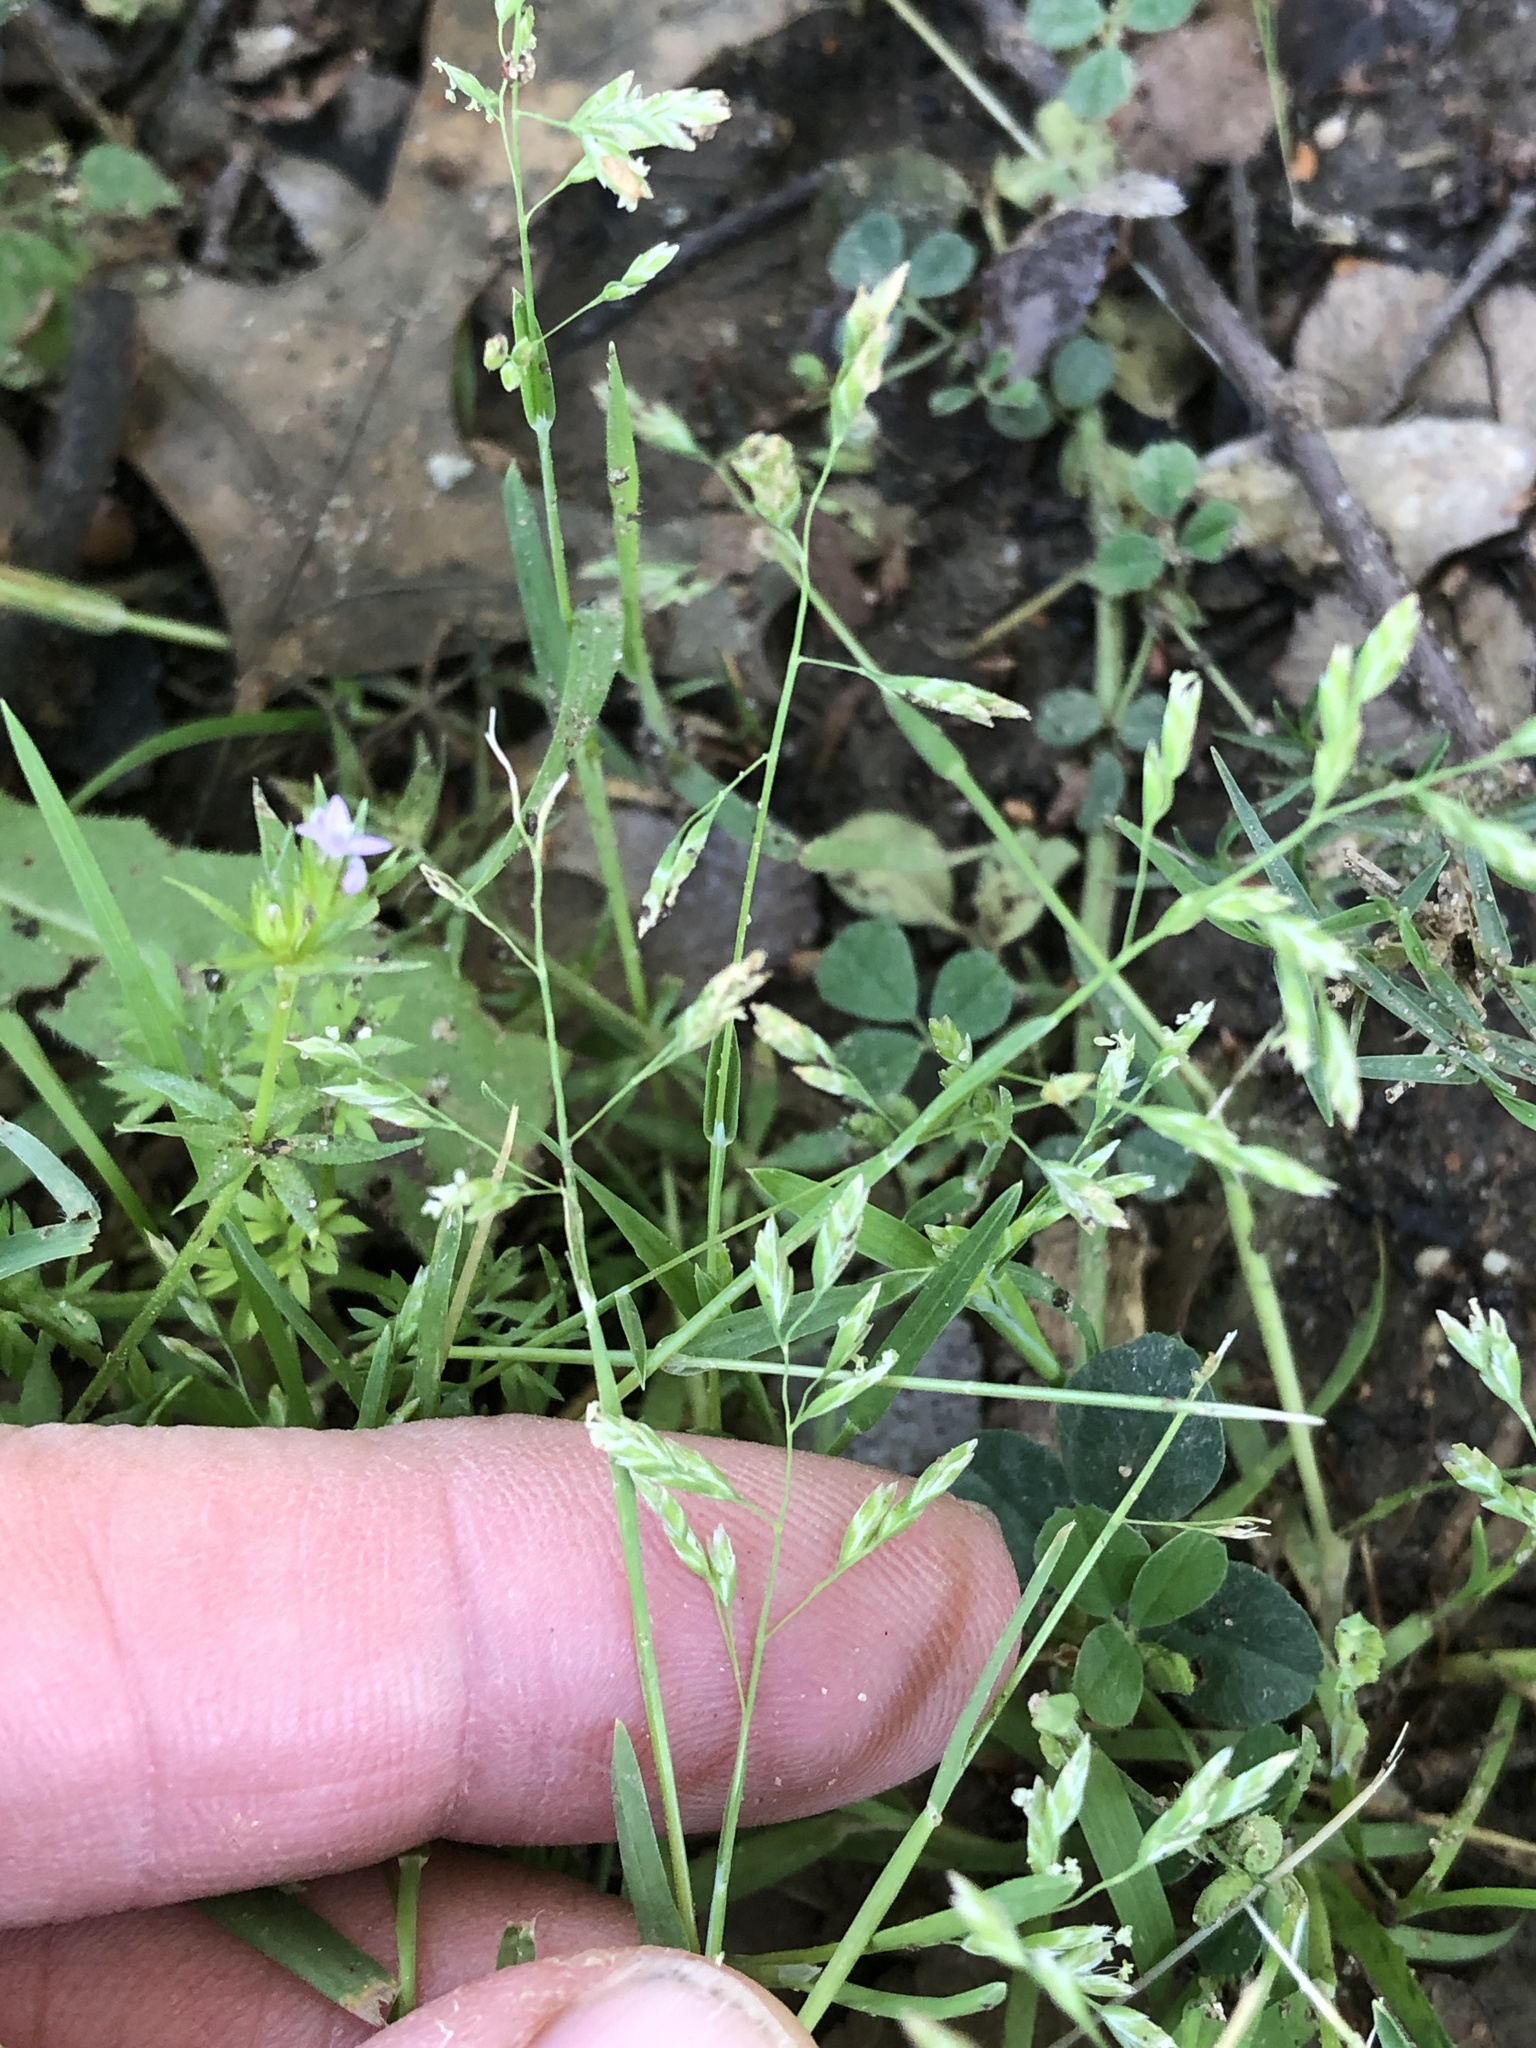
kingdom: Plantae
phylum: Tracheophyta
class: Liliopsida
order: Poales
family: Poaceae
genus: Poa
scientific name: Poa annua
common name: Annual bluegrass
